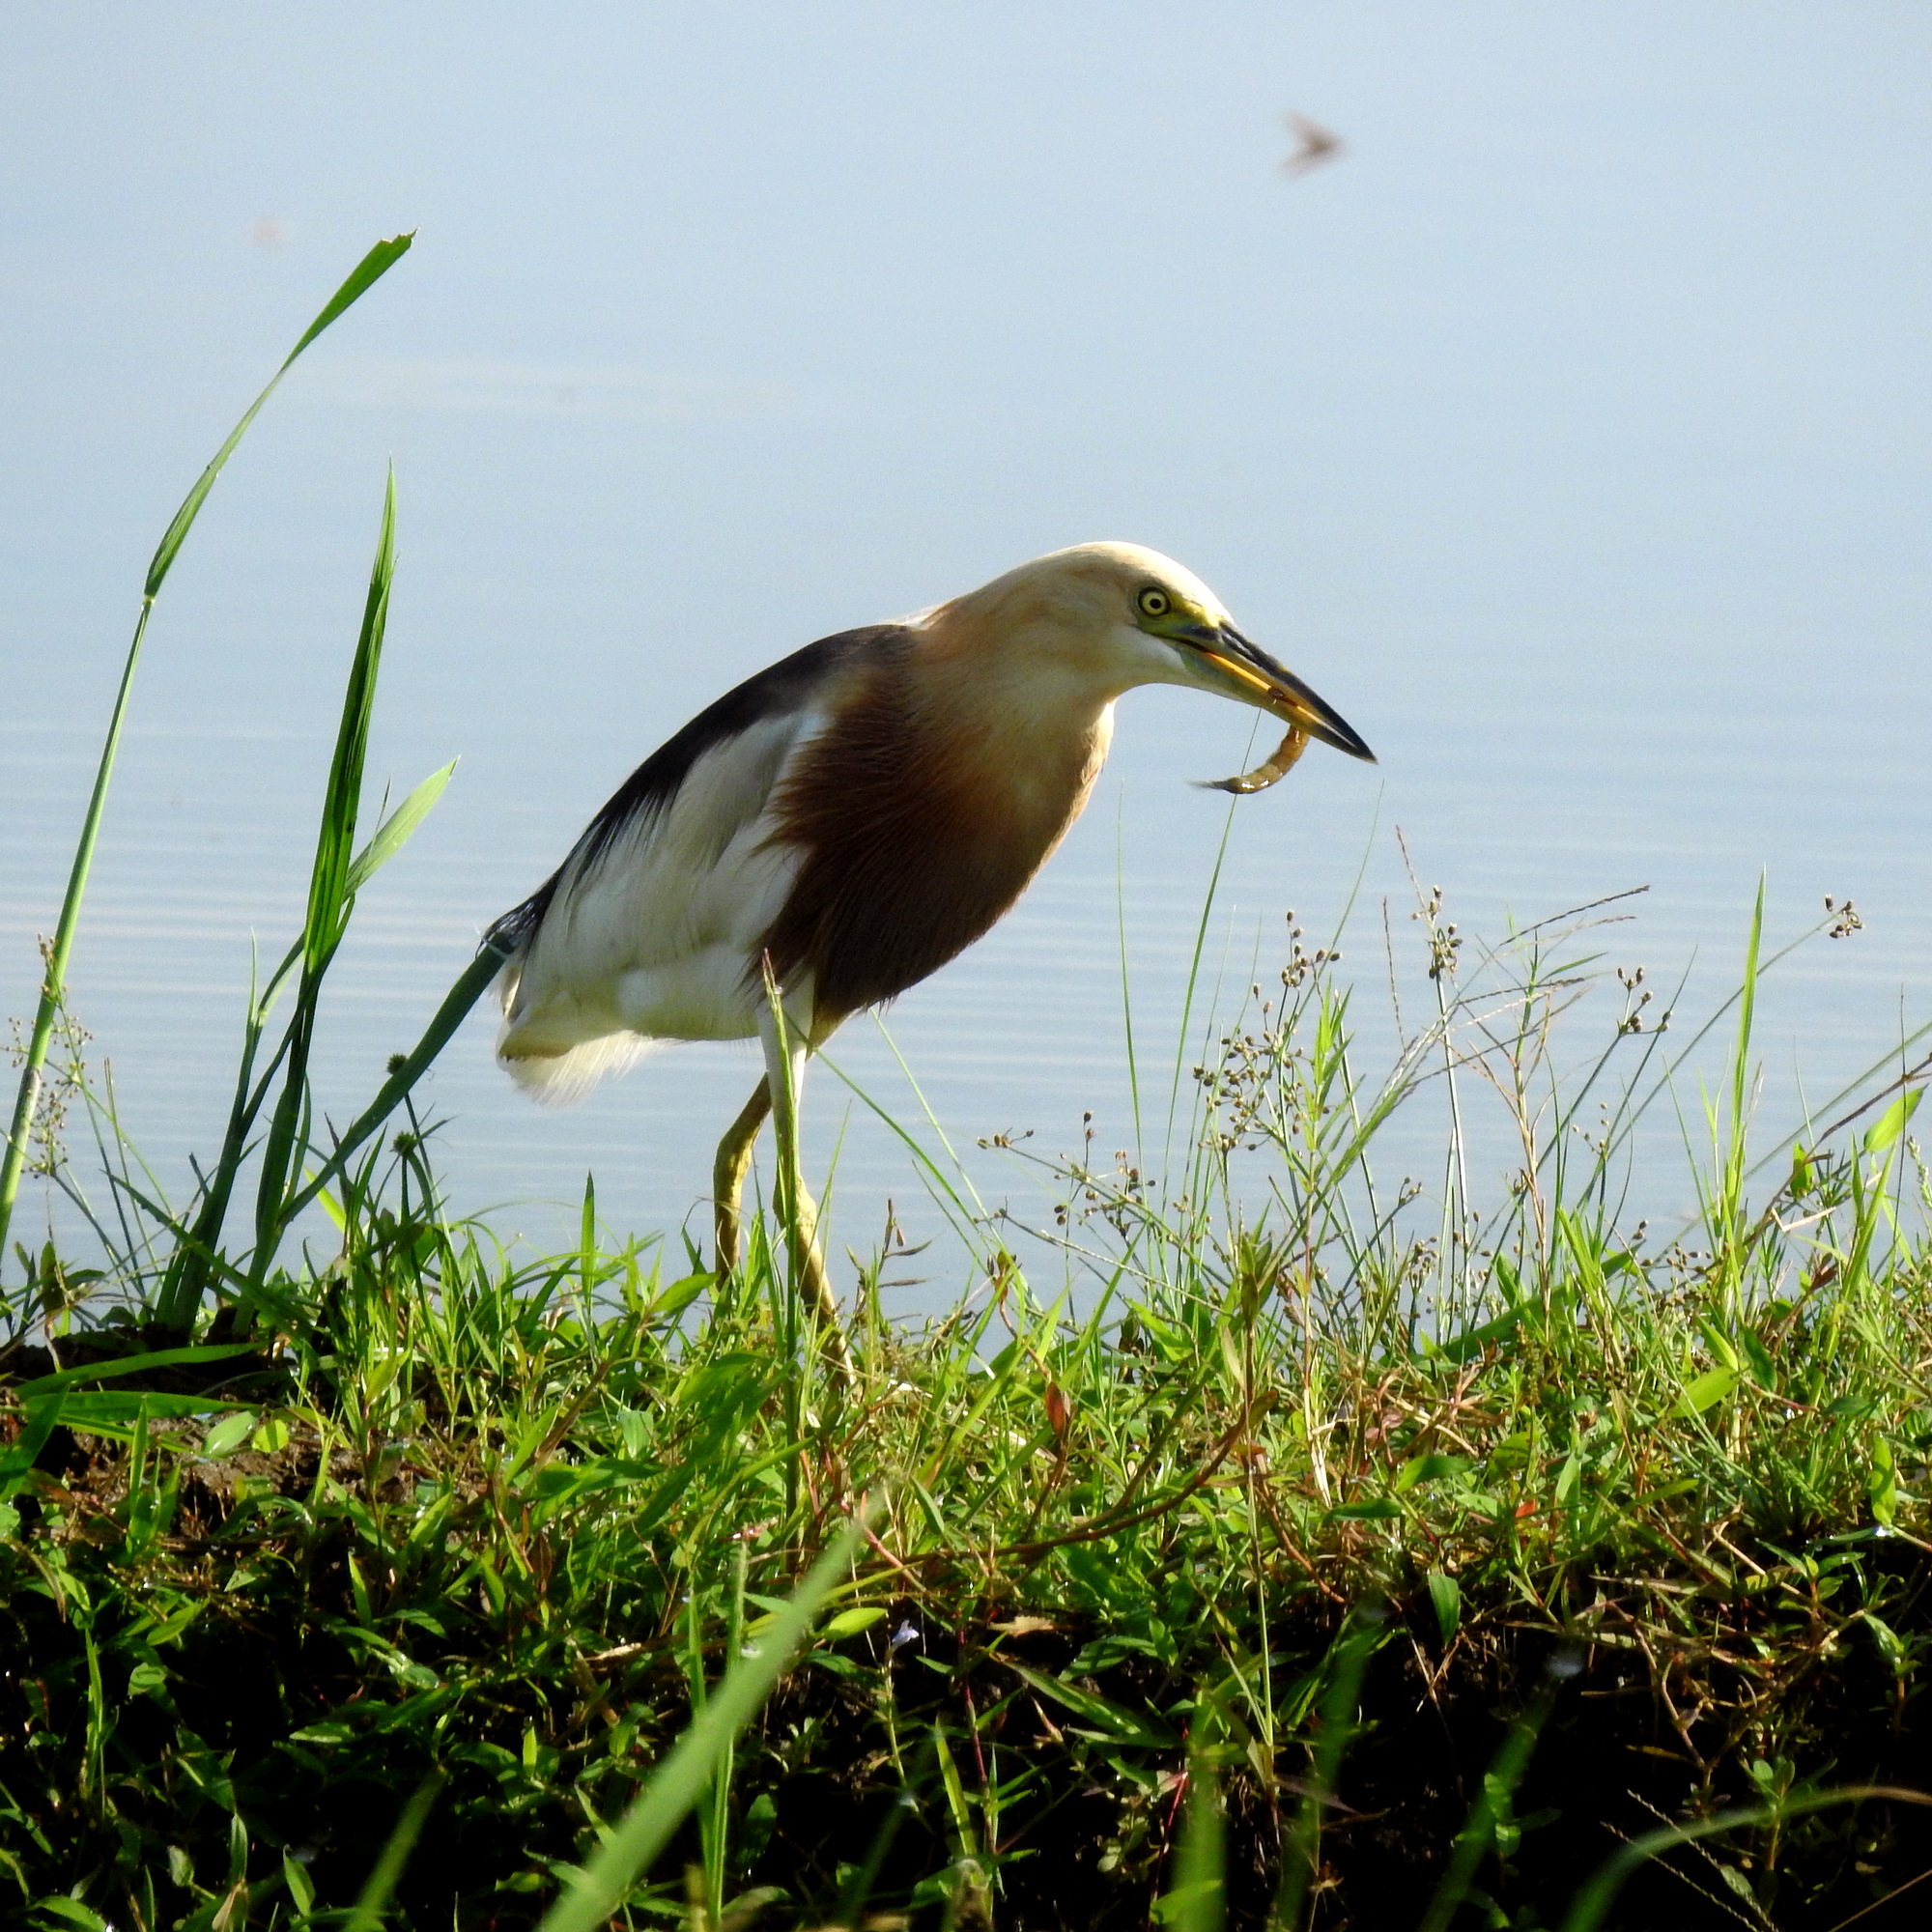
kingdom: Animalia
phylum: Chordata
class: Aves
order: Pelecaniformes
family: Ardeidae
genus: Ardeola
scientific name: Ardeola speciosa
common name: Javan pond heron
